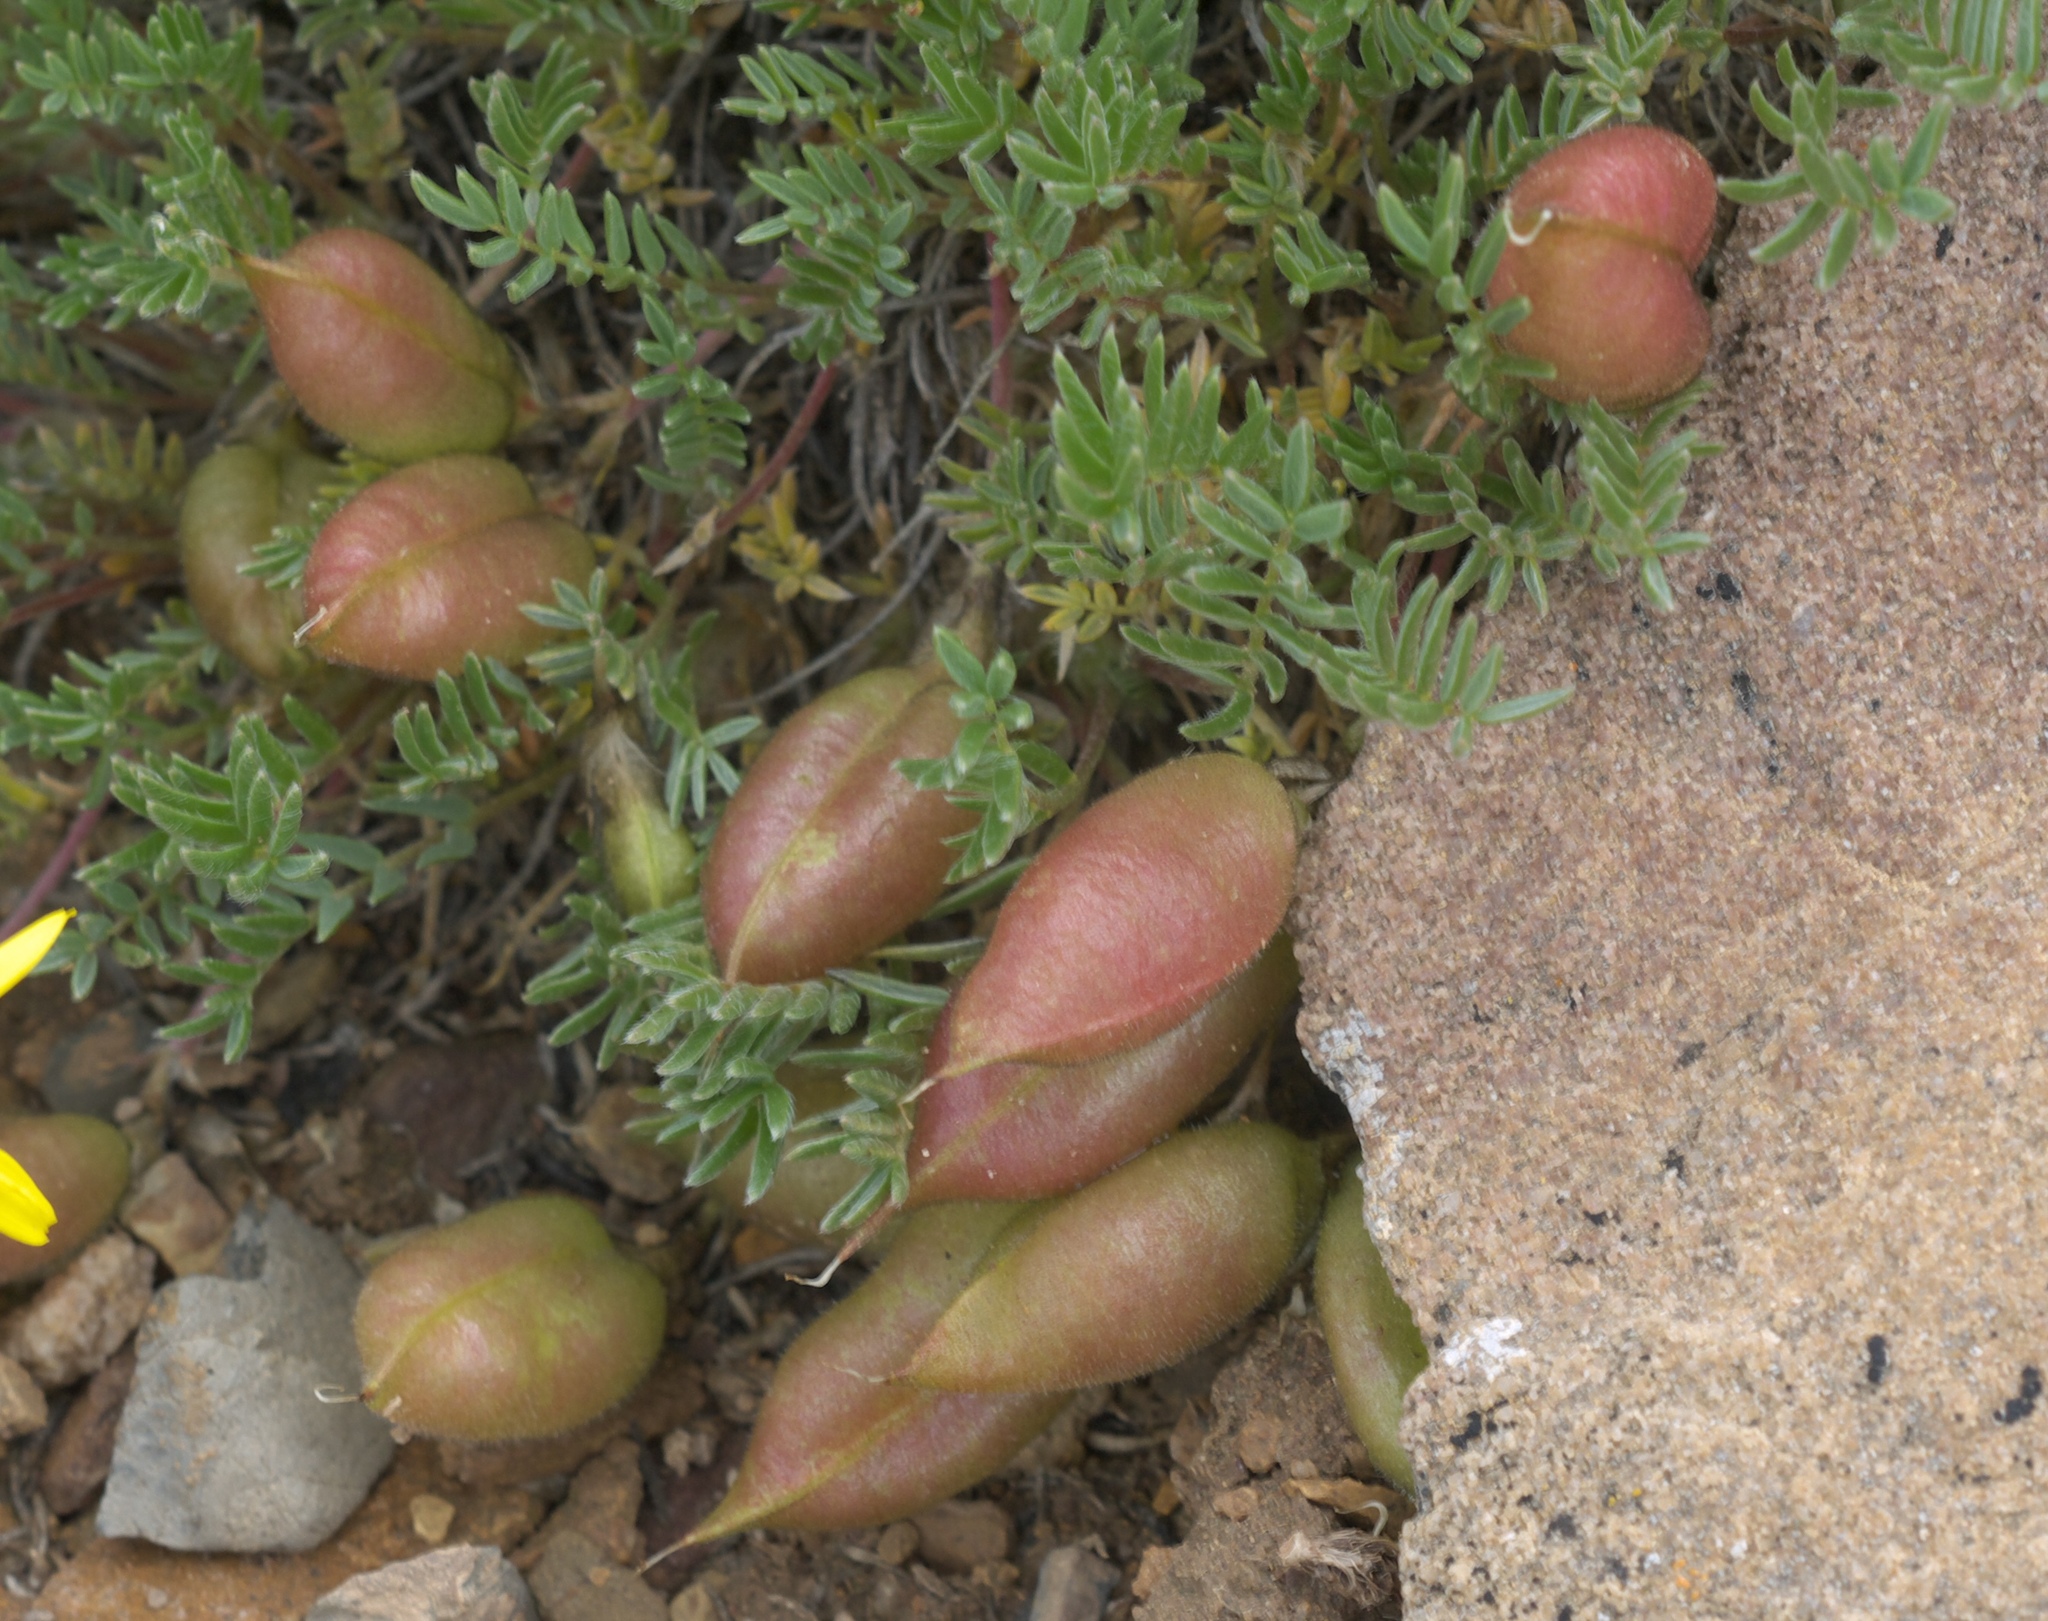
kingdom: Plantae
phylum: Tracheophyta
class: Magnoliopsida
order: Fabales
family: Fabaceae
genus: Oxytropis
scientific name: Oxytropis podocarpa
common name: Gray's oxytrope
